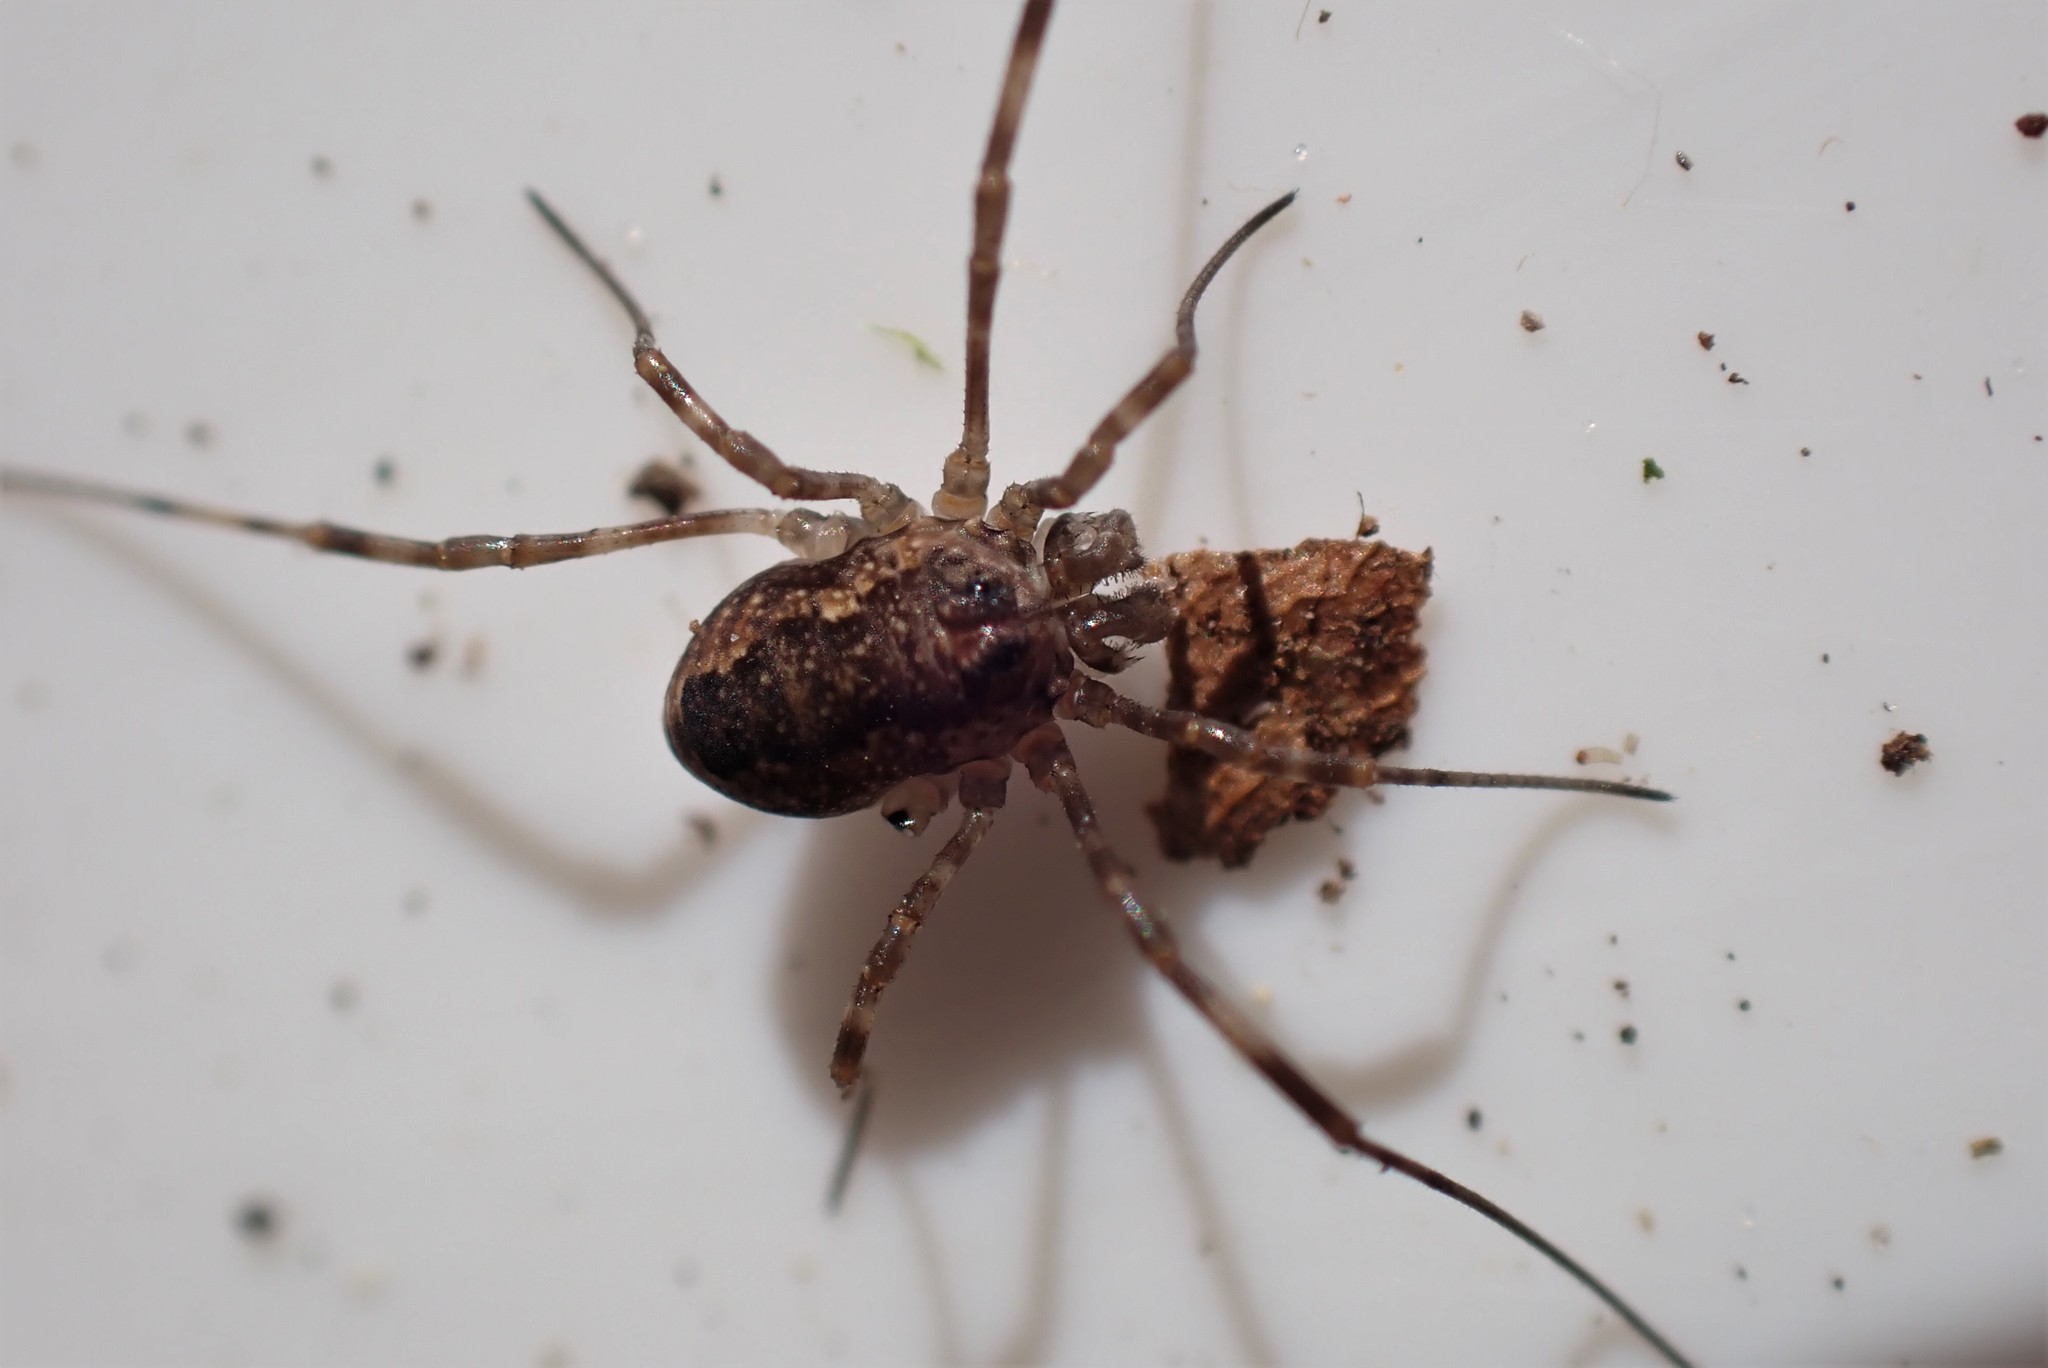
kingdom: Animalia
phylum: Arthropoda
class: Arachnida
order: Opiliones
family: Phalangiidae
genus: Rilaena
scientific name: Rilaena triangularis
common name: Spring harvestman
